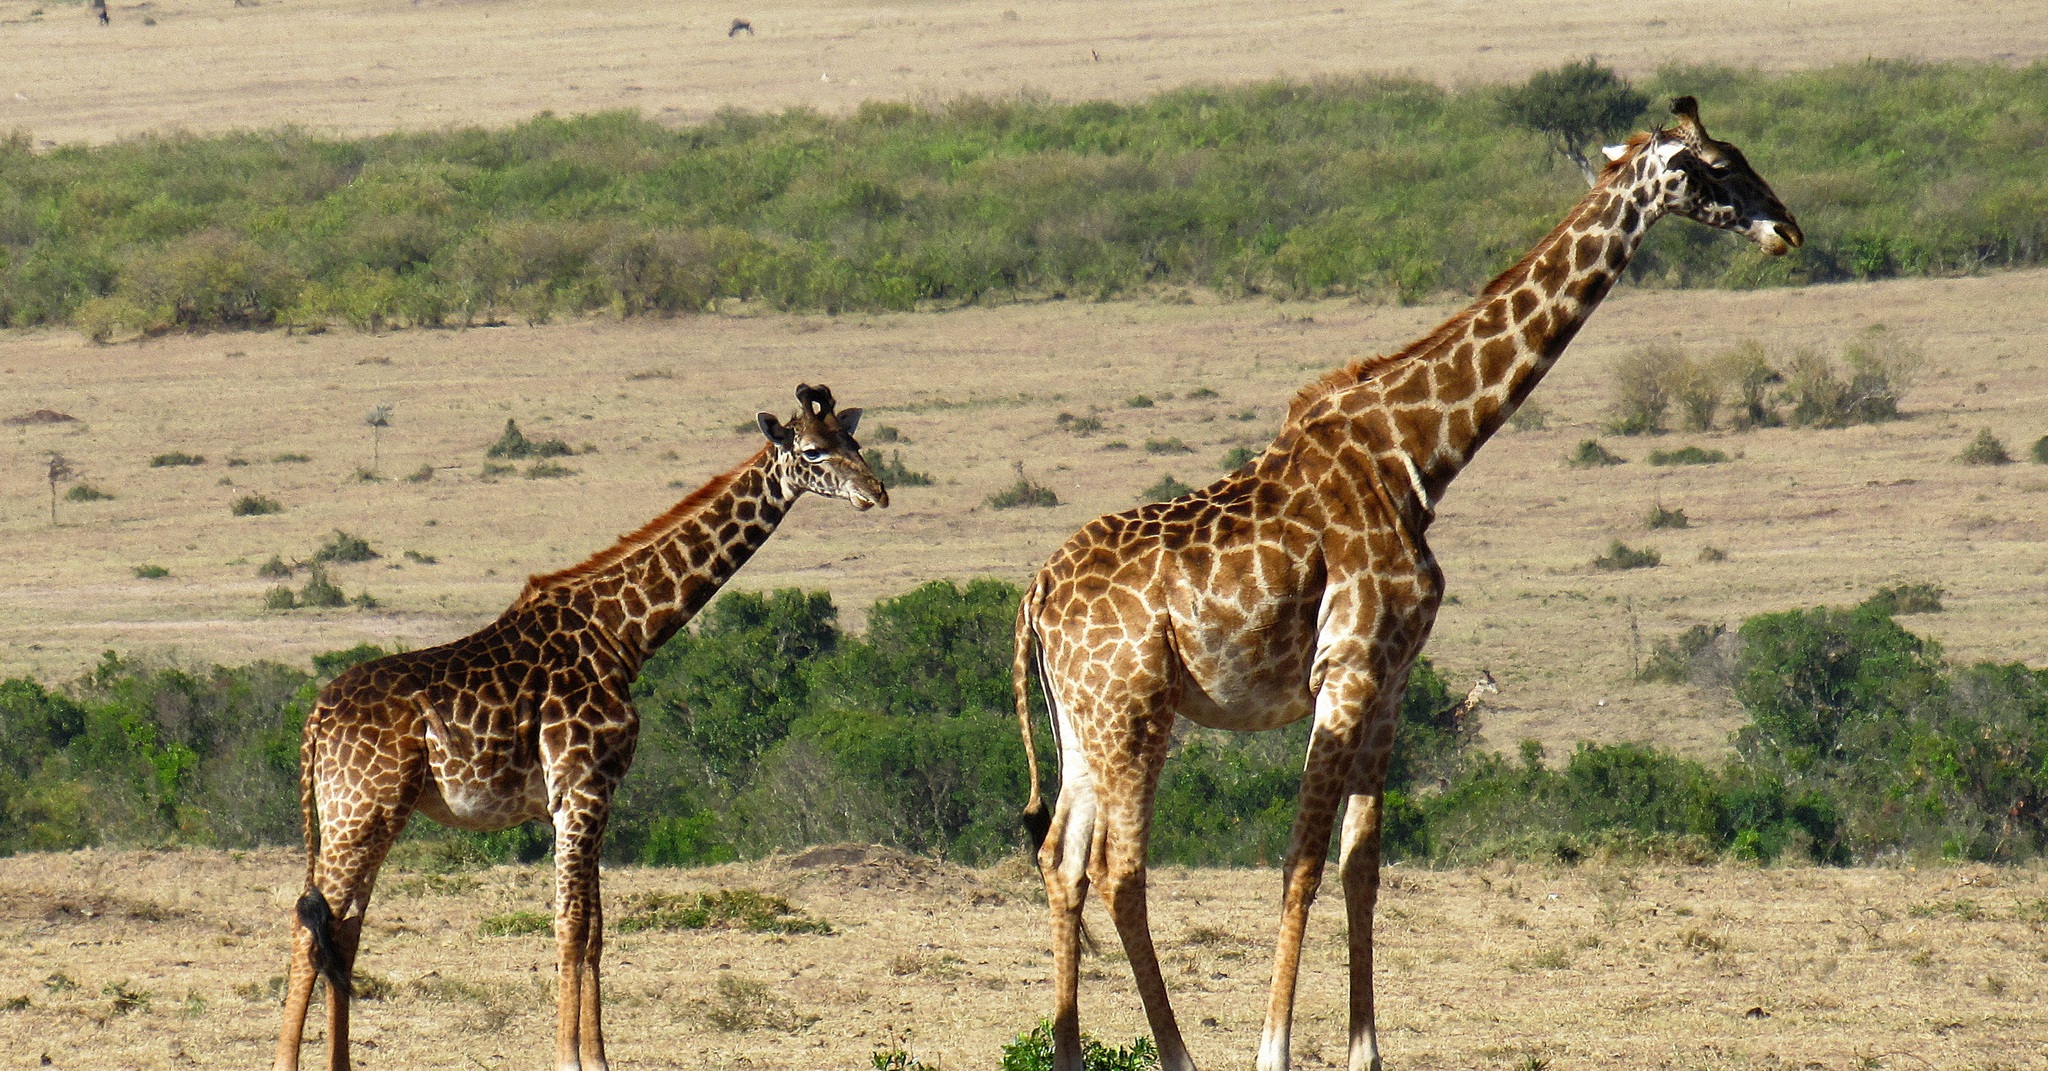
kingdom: Animalia
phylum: Chordata
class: Mammalia
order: Artiodactyla
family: Giraffidae
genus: Giraffa
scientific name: Giraffa tippelskirchi
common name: Masai giraffe
